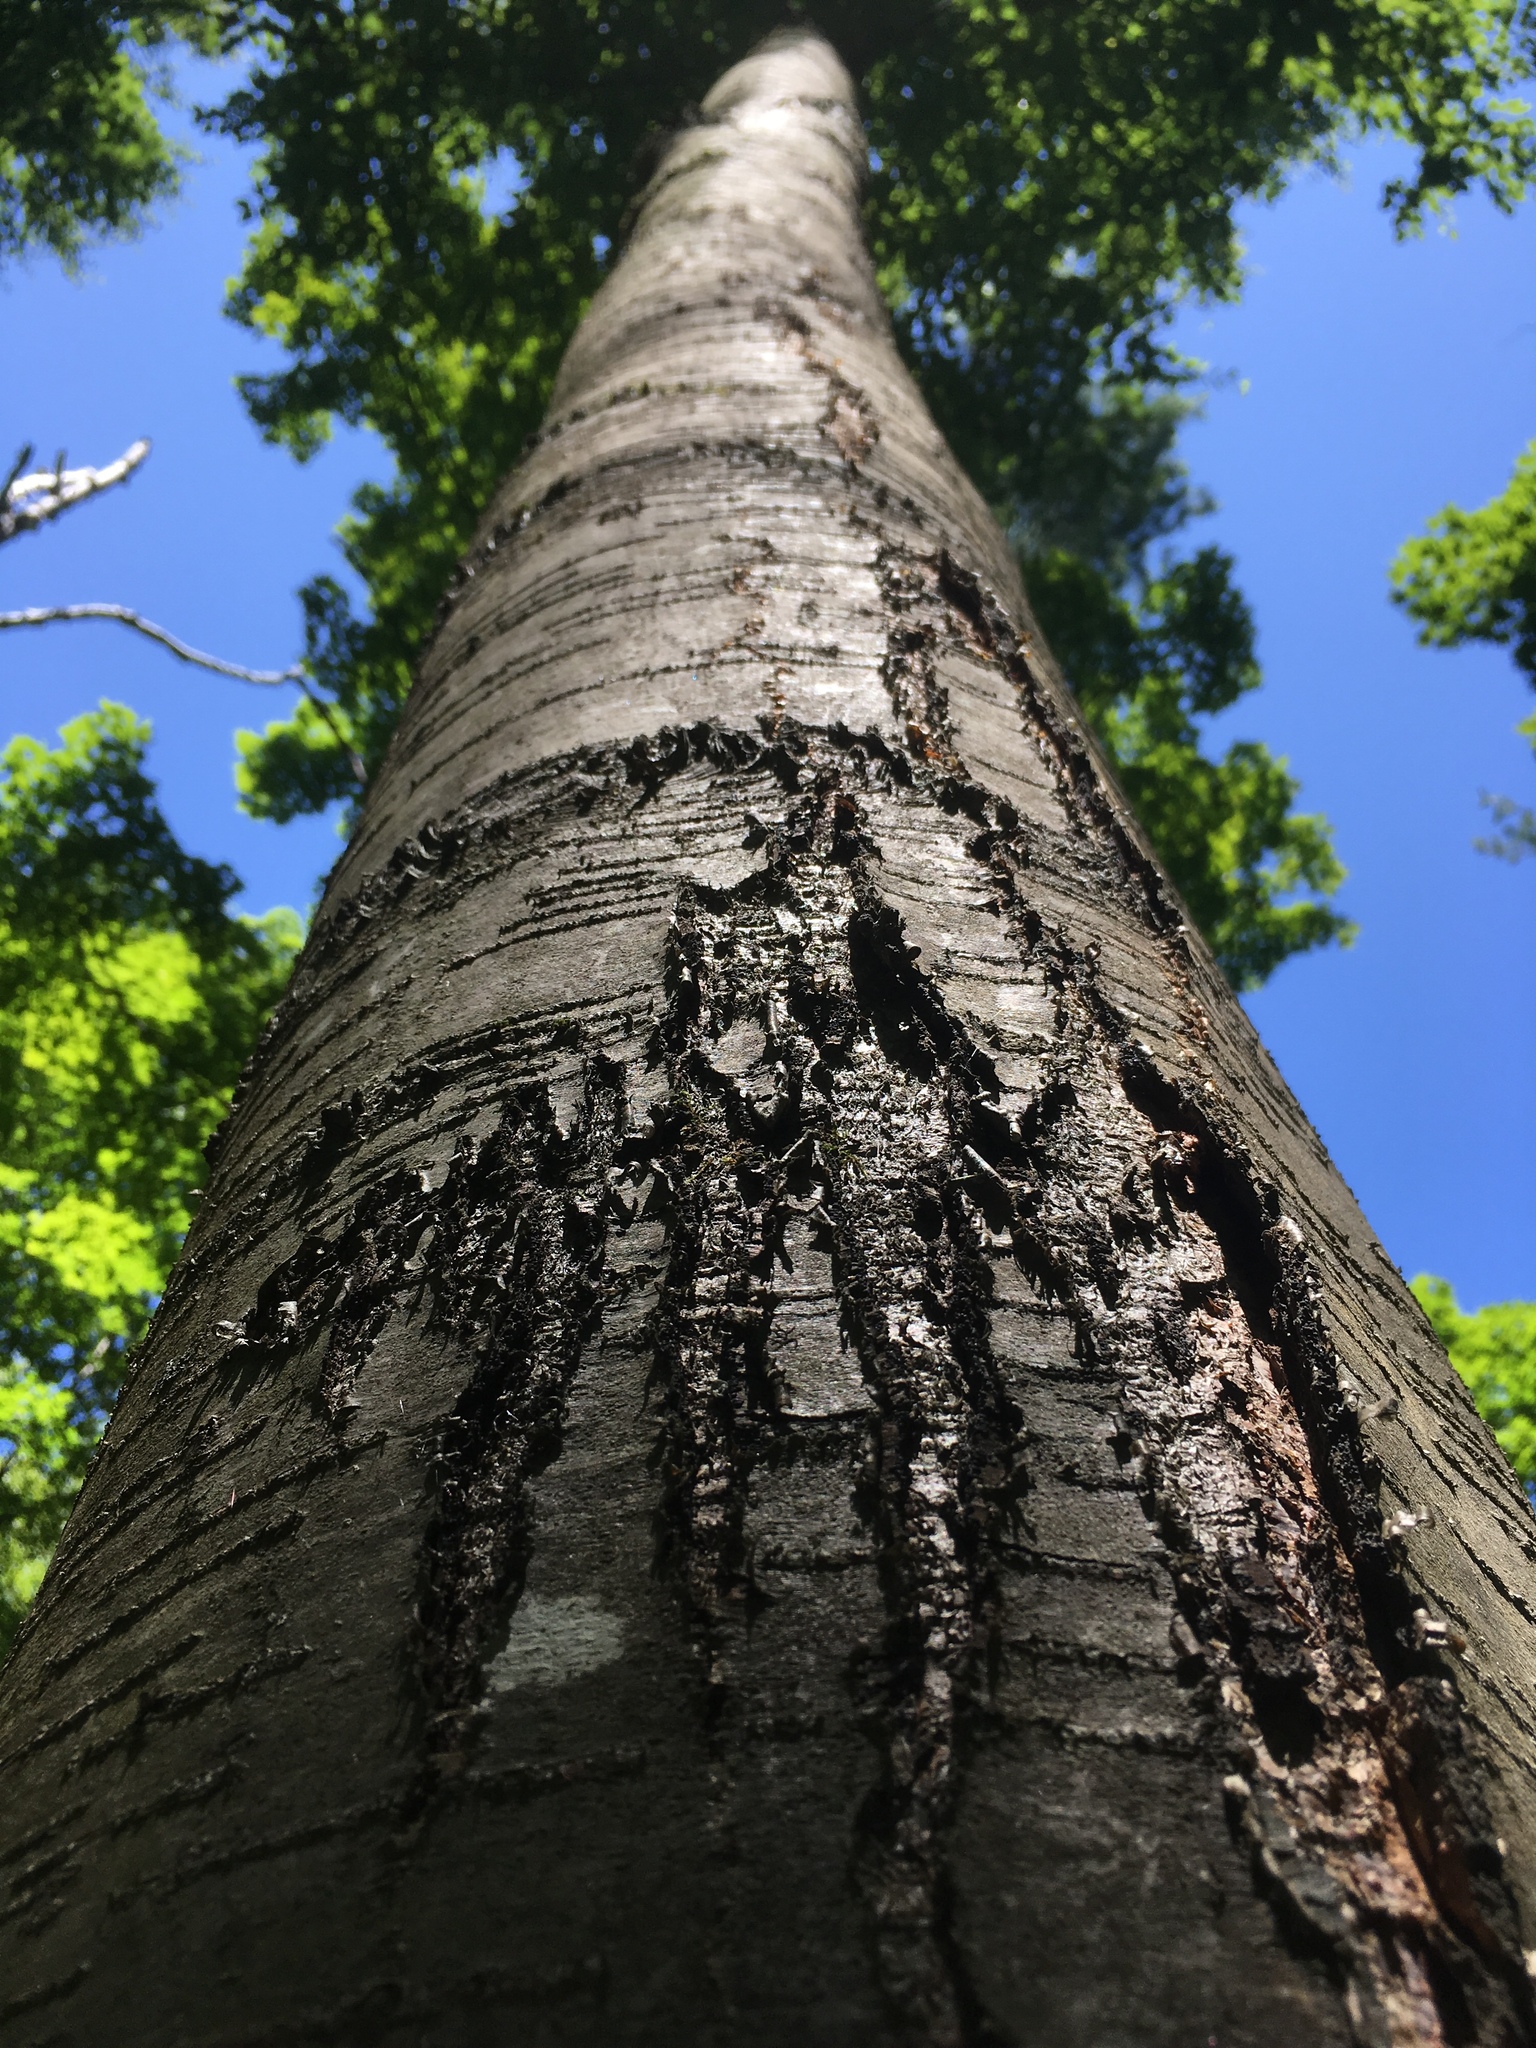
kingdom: Plantae
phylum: Tracheophyta
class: Magnoliopsida
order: Fagales
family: Betulaceae
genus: Betula
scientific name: Betula lenta
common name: Black birch
